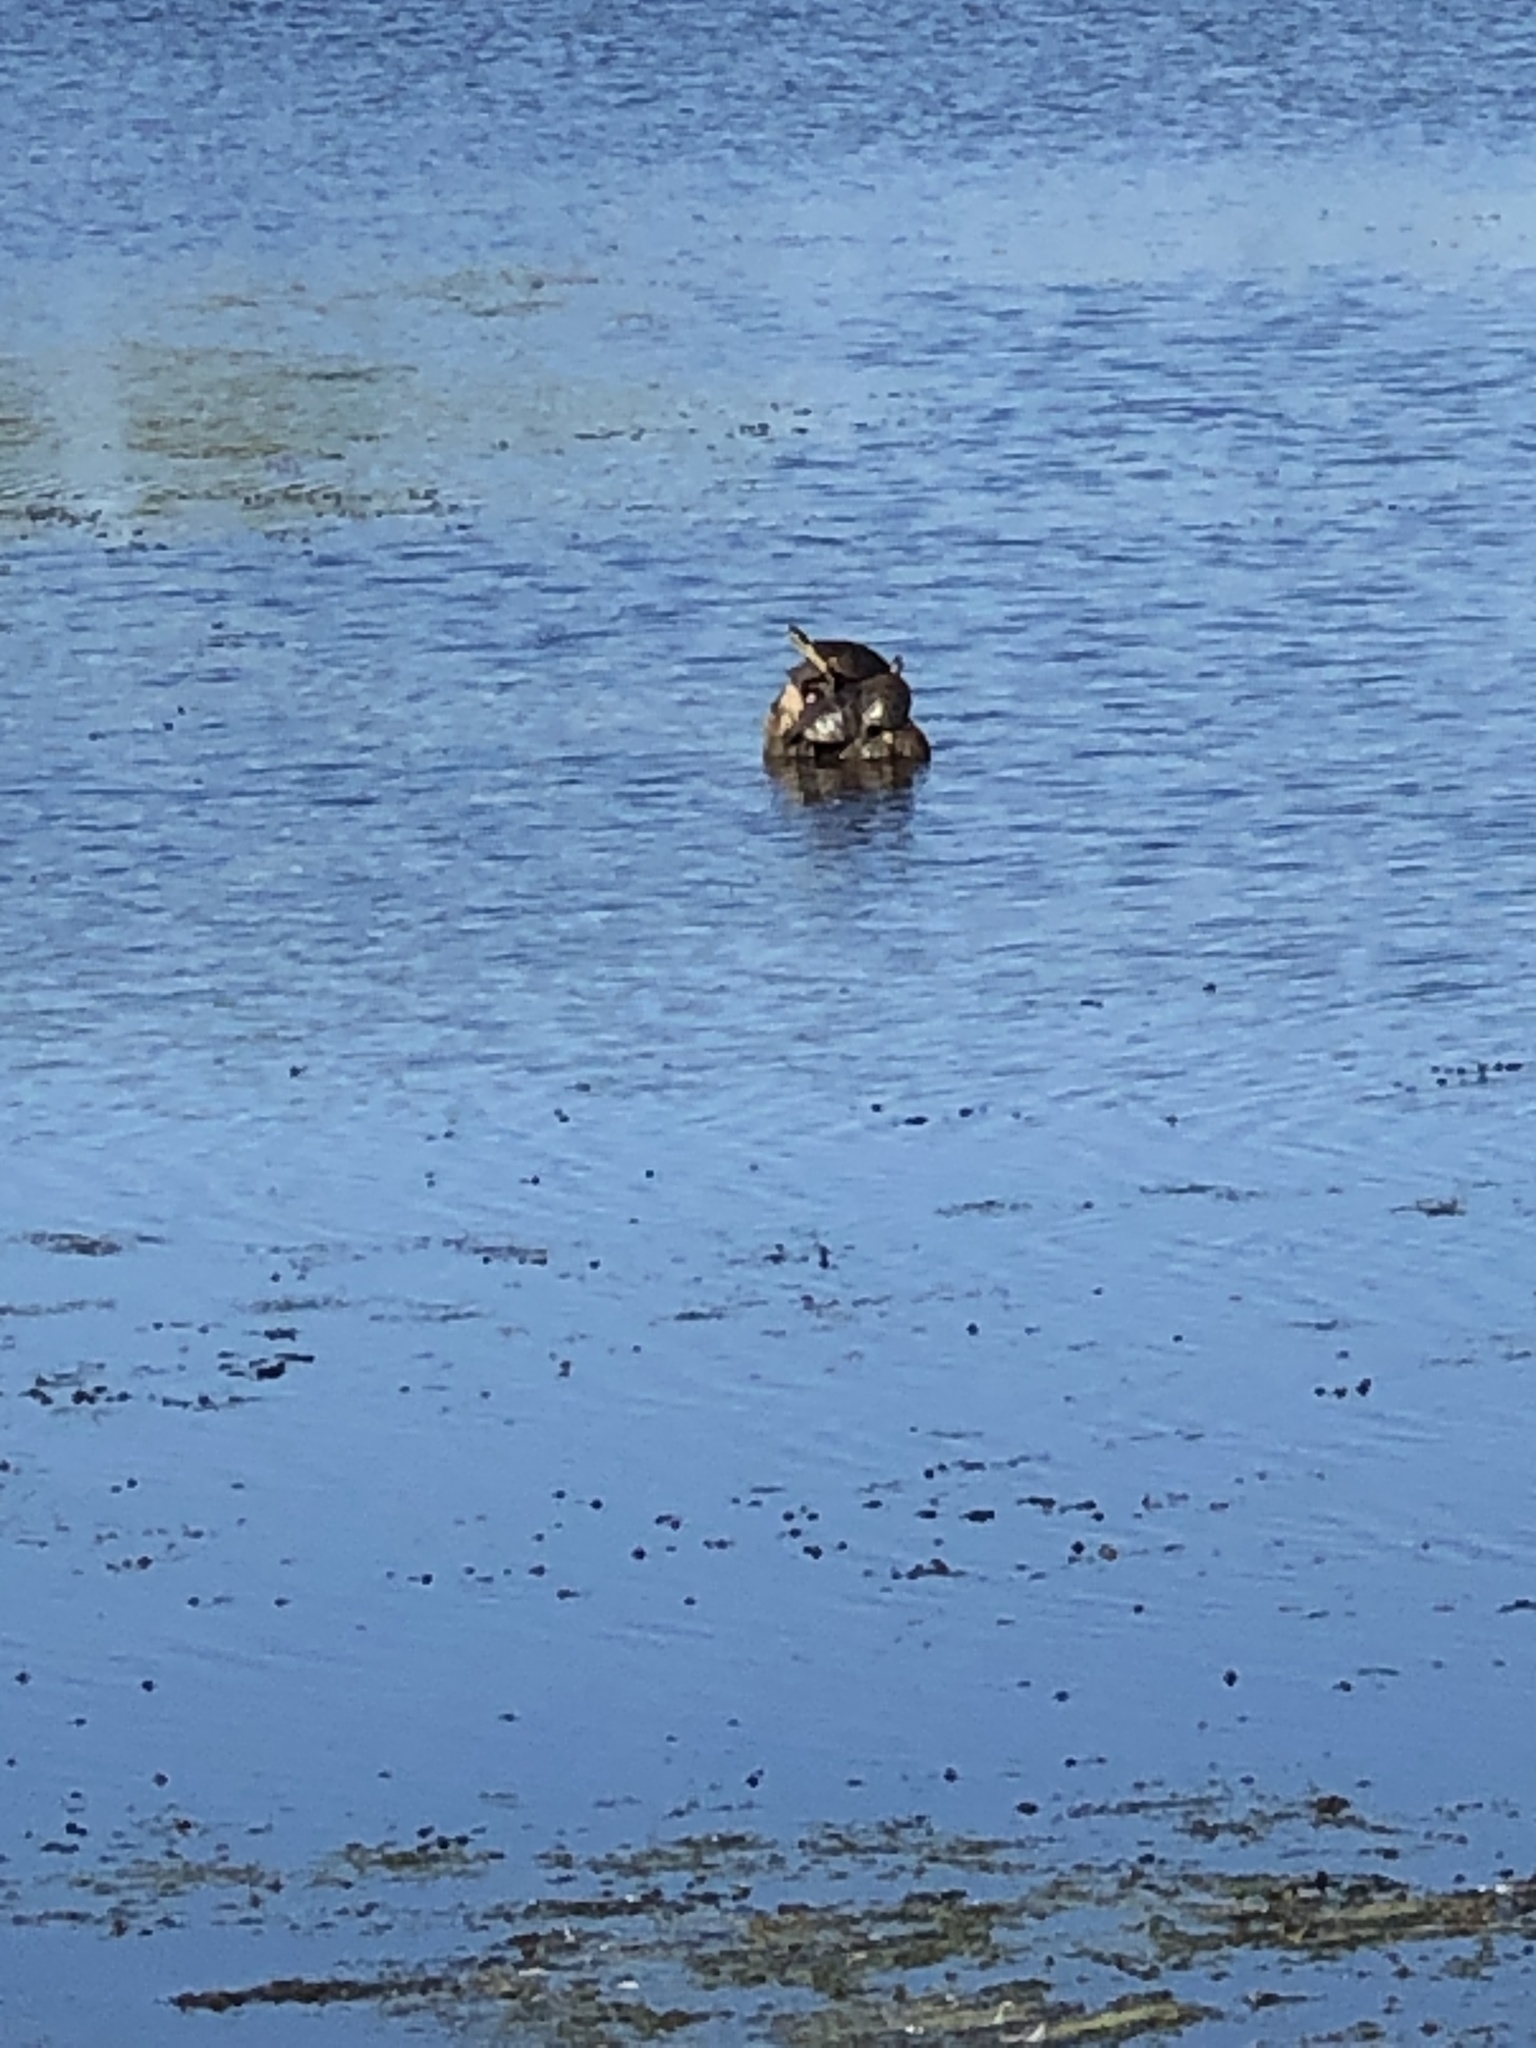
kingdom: Animalia
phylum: Chordata
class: Testudines
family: Emydidae
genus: Chrysemys
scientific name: Chrysemys picta
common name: Painted turtle
